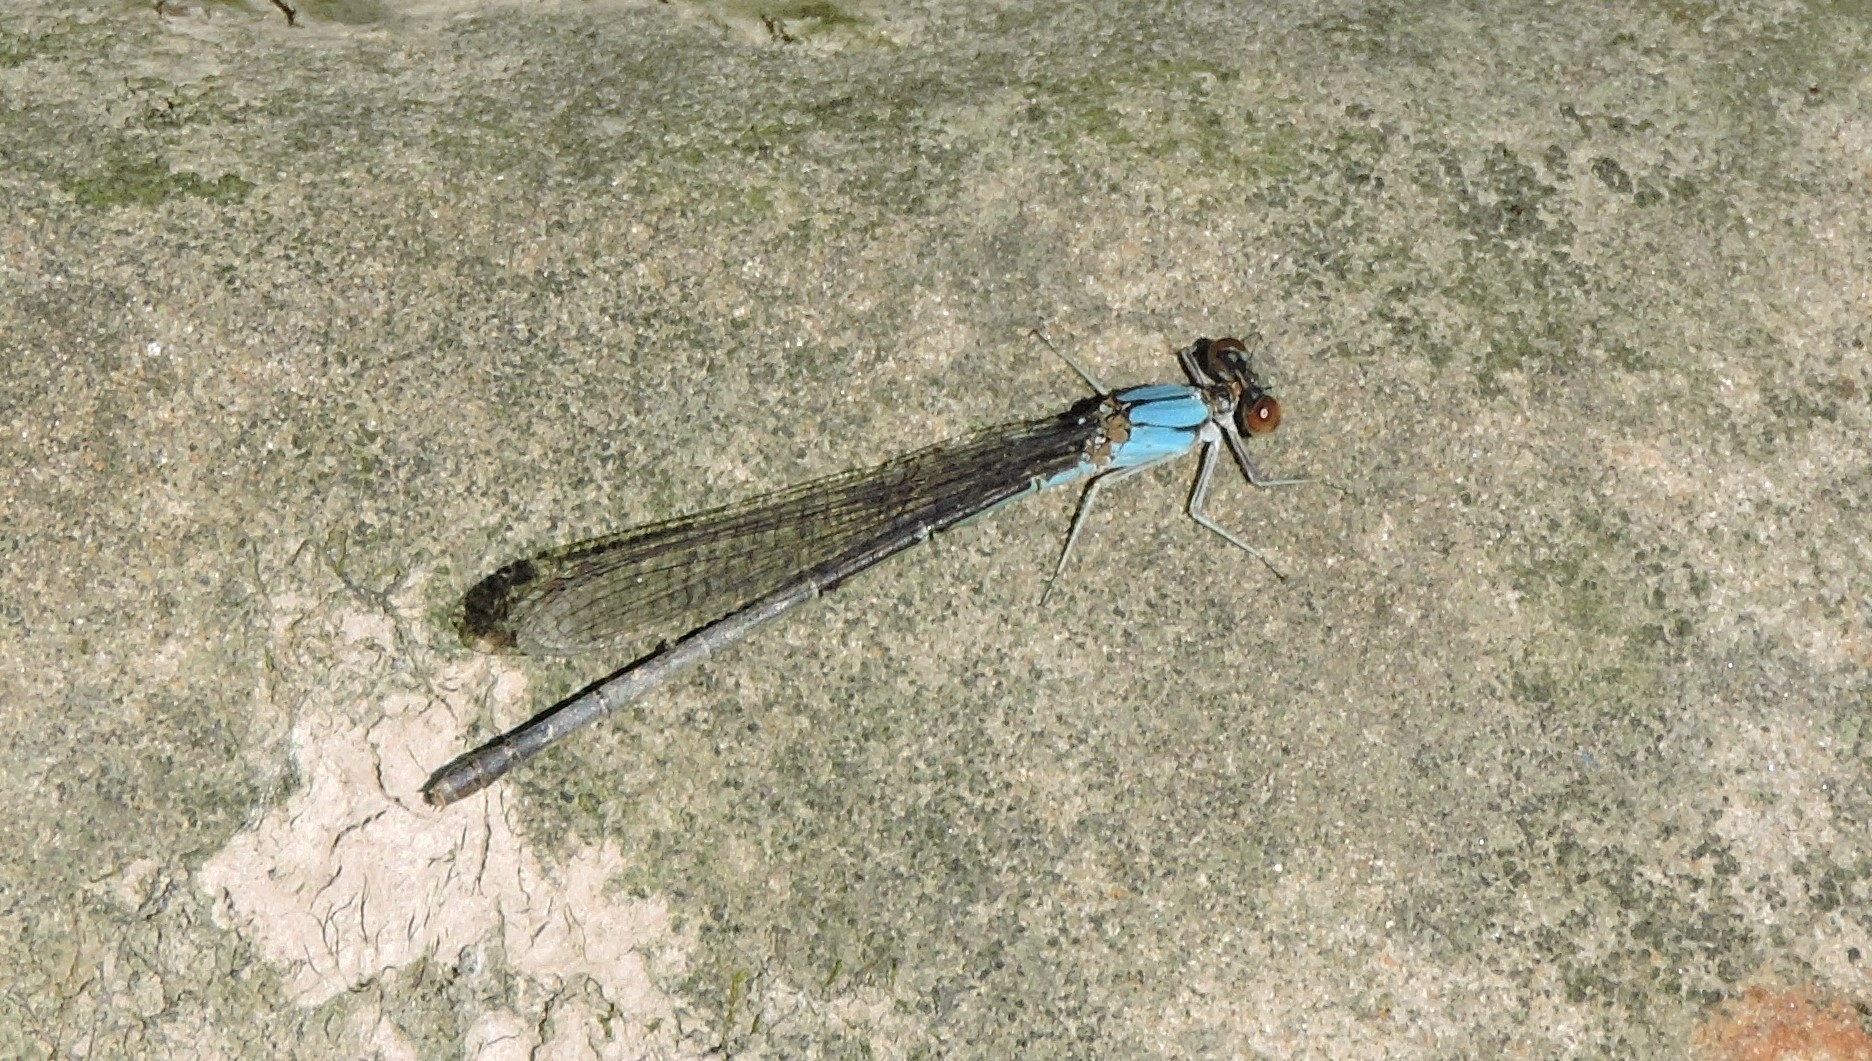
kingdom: Animalia
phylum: Arthropoda
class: Insecta
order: Odonata
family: Coenagrionidae
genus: Argia
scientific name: Argia
